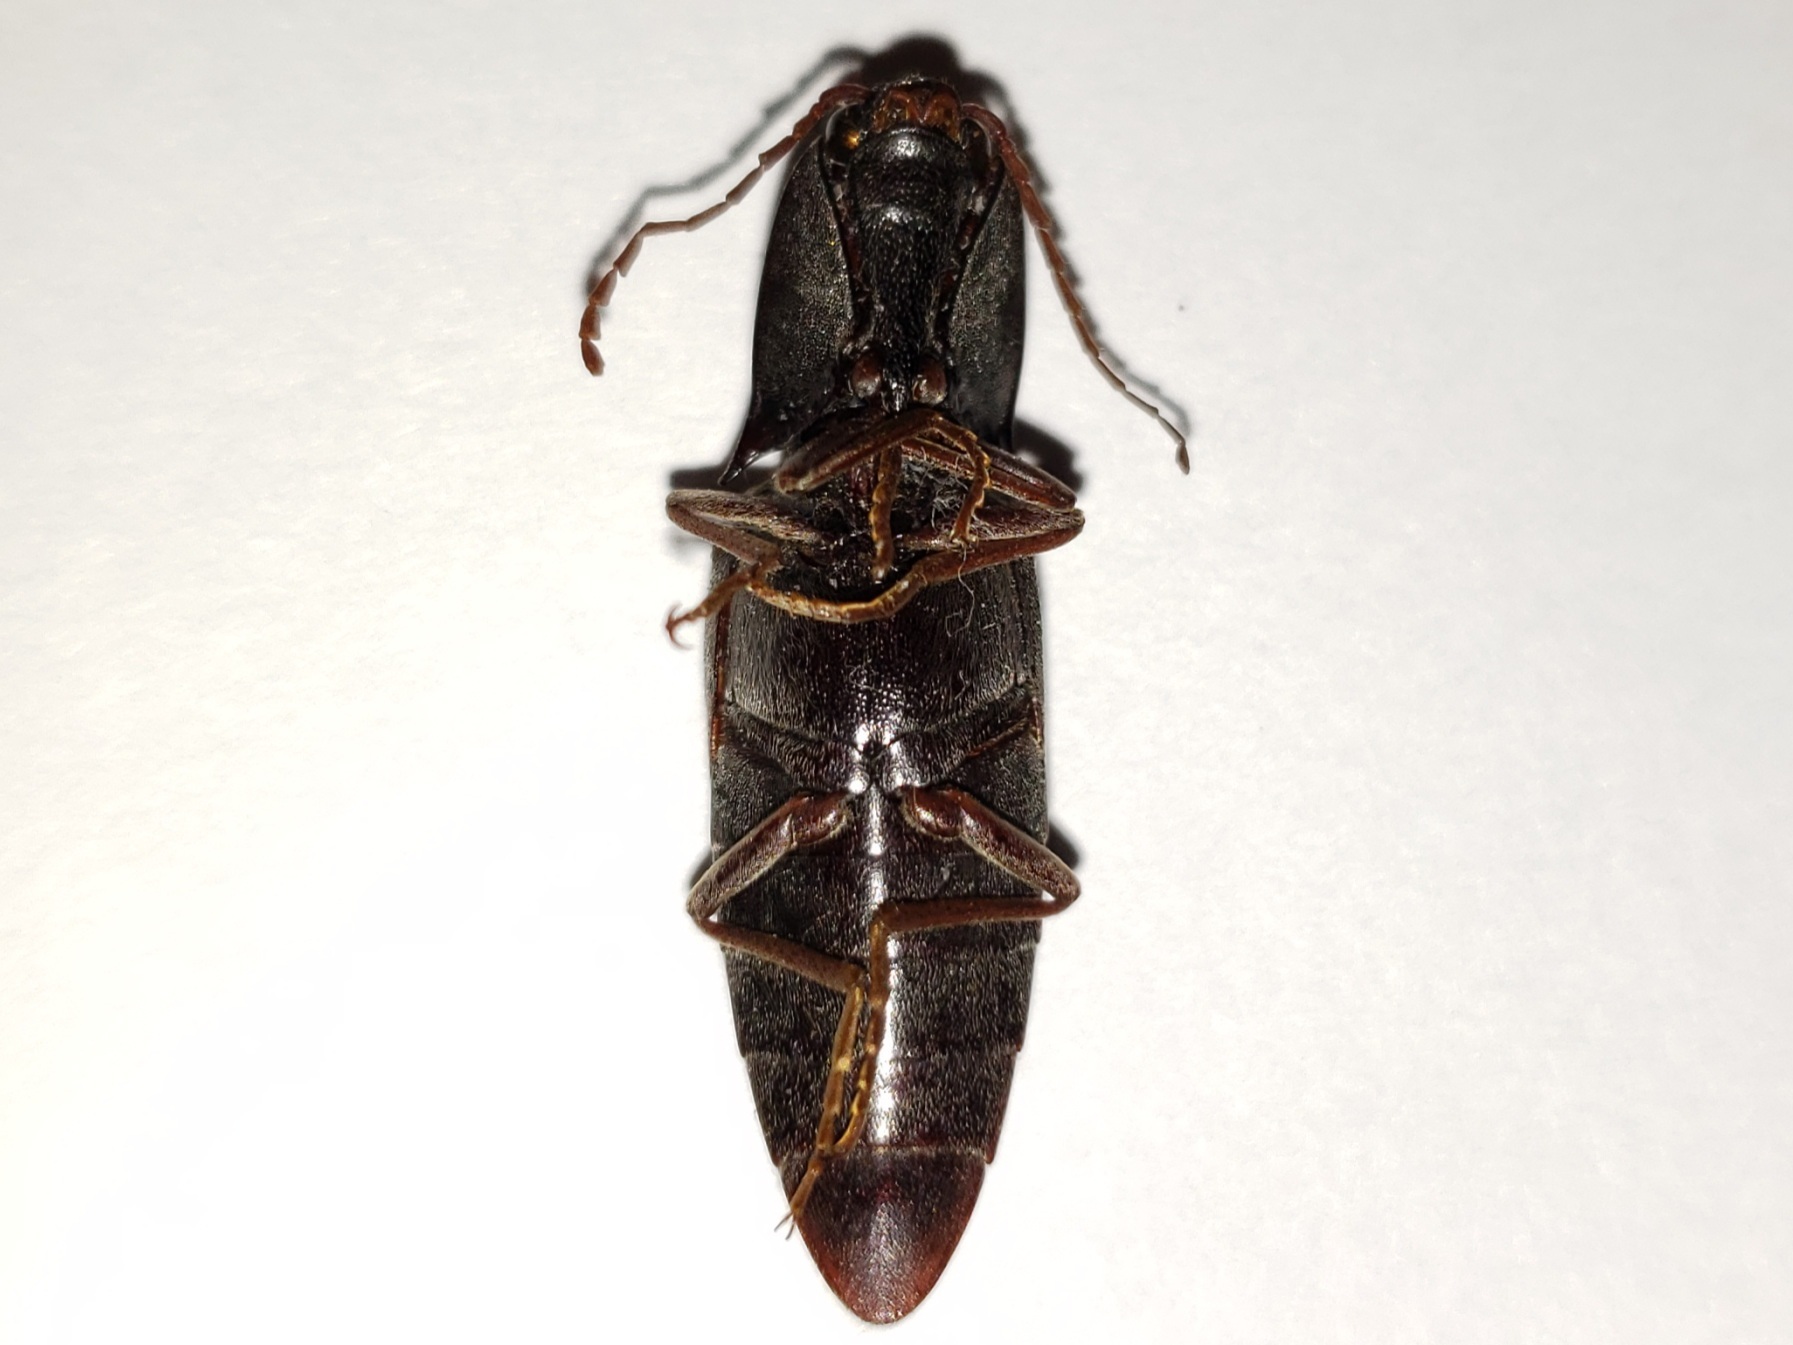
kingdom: Animalia
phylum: Arthropoda
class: Insecta
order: Coleoptera
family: Elateridae
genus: Lanelater
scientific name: Lanelater sallei
